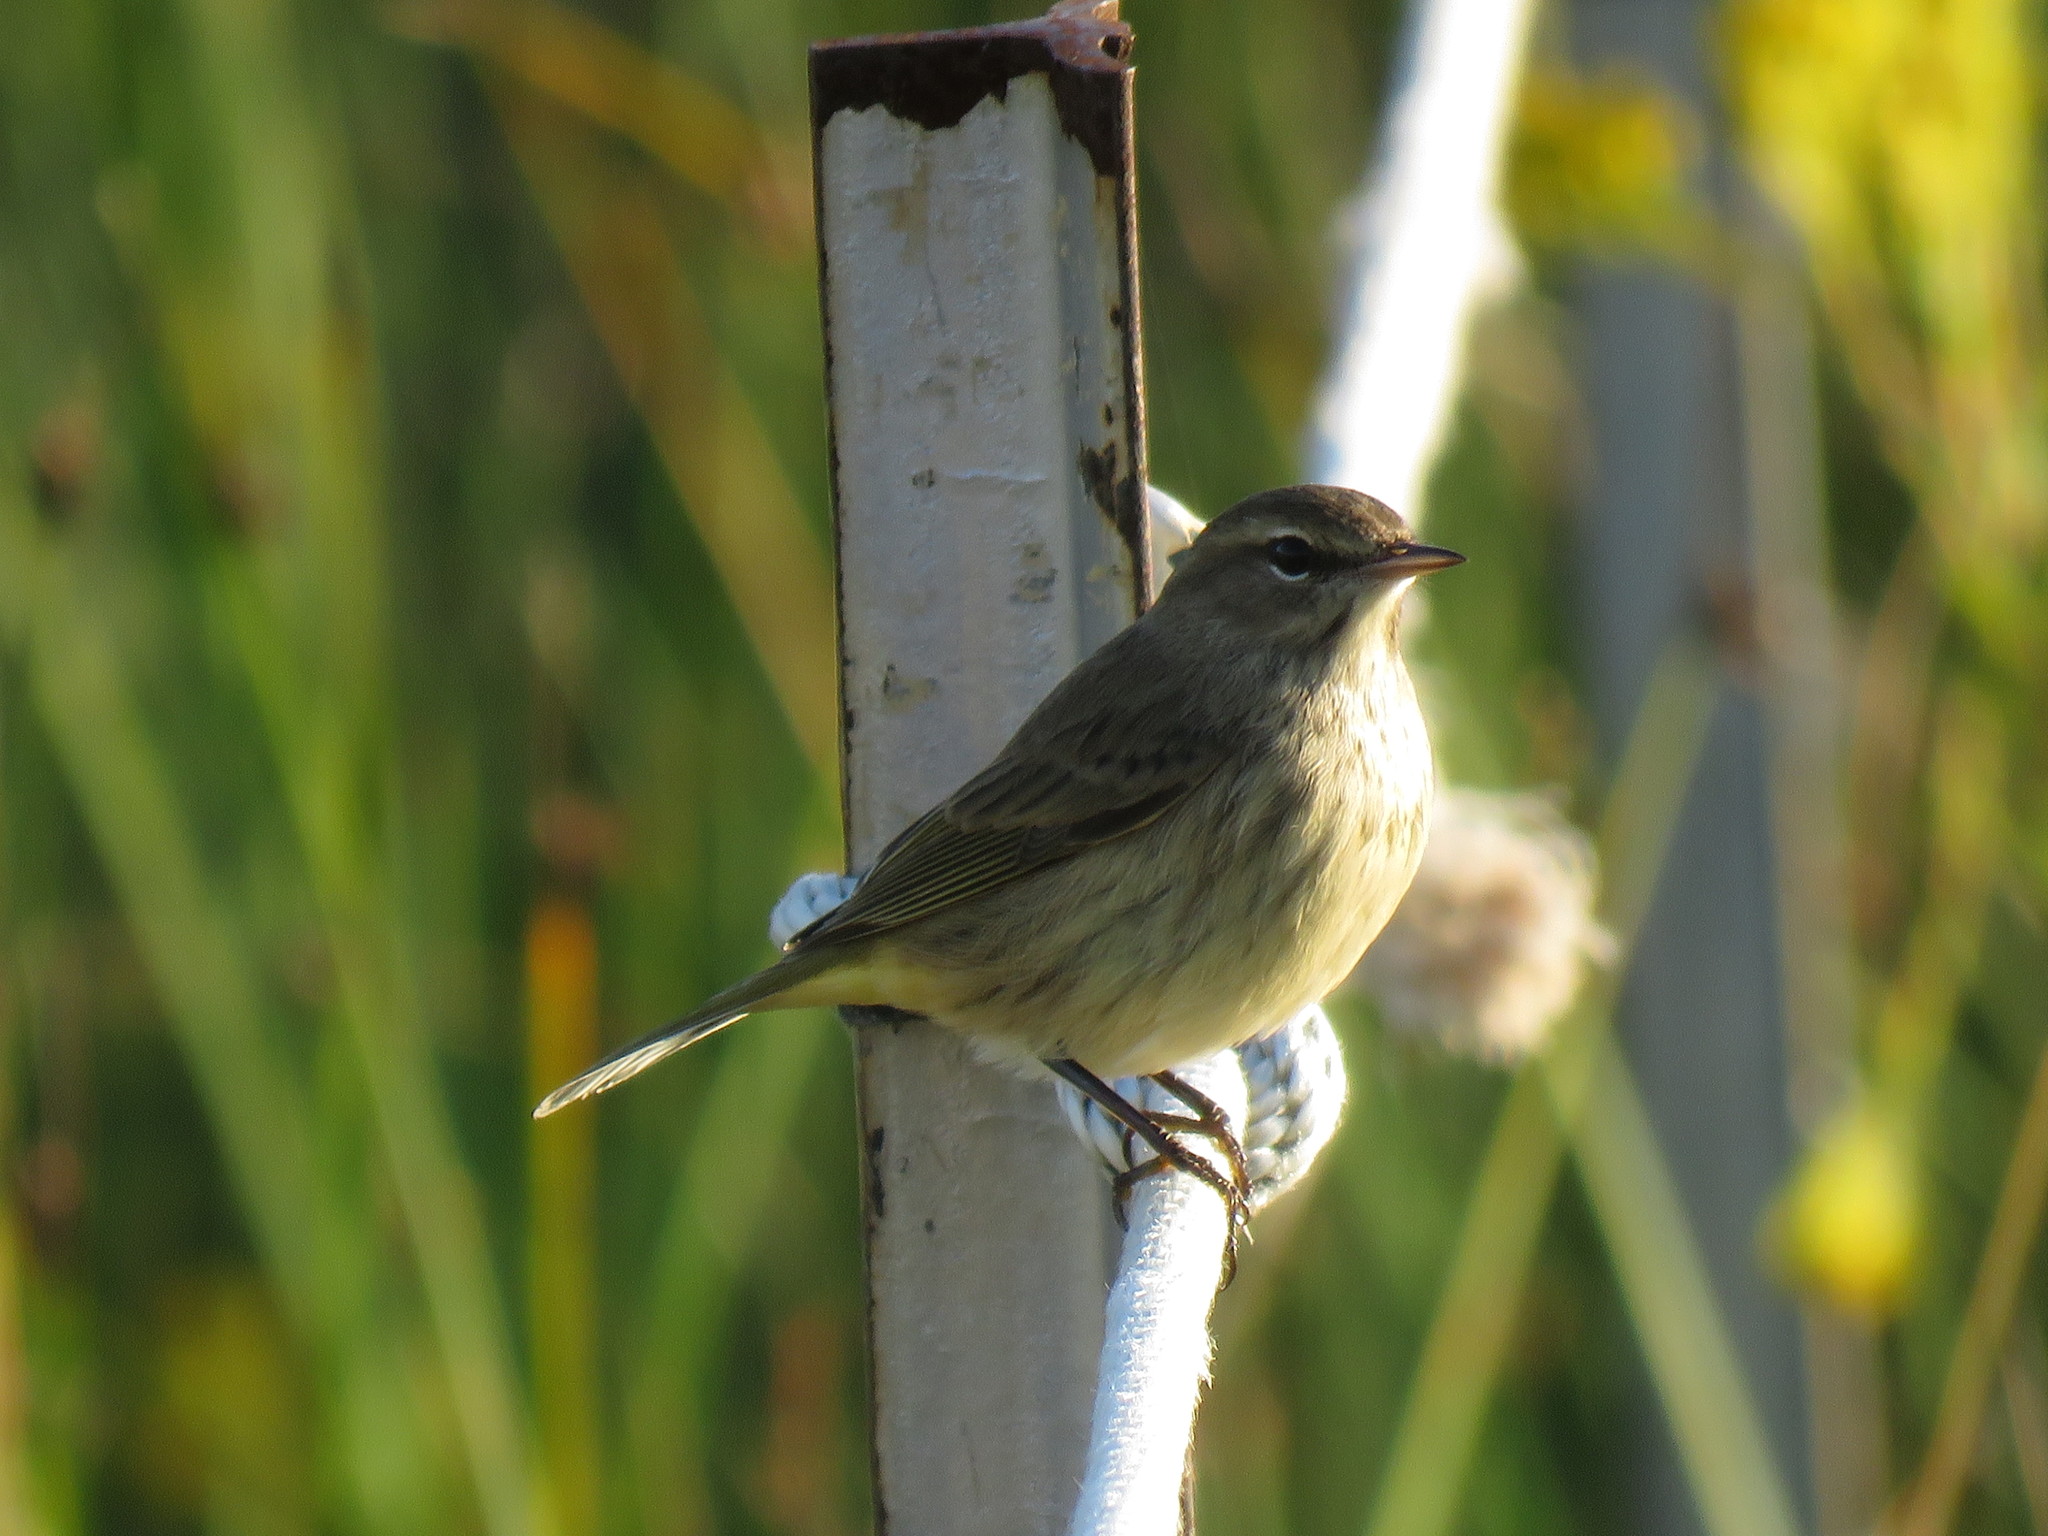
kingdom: Animalia
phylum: Chordata
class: Aves
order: Passeriformes
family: Parulidae
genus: Setophaga
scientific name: Setophaga palmarum
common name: Palm warbler
